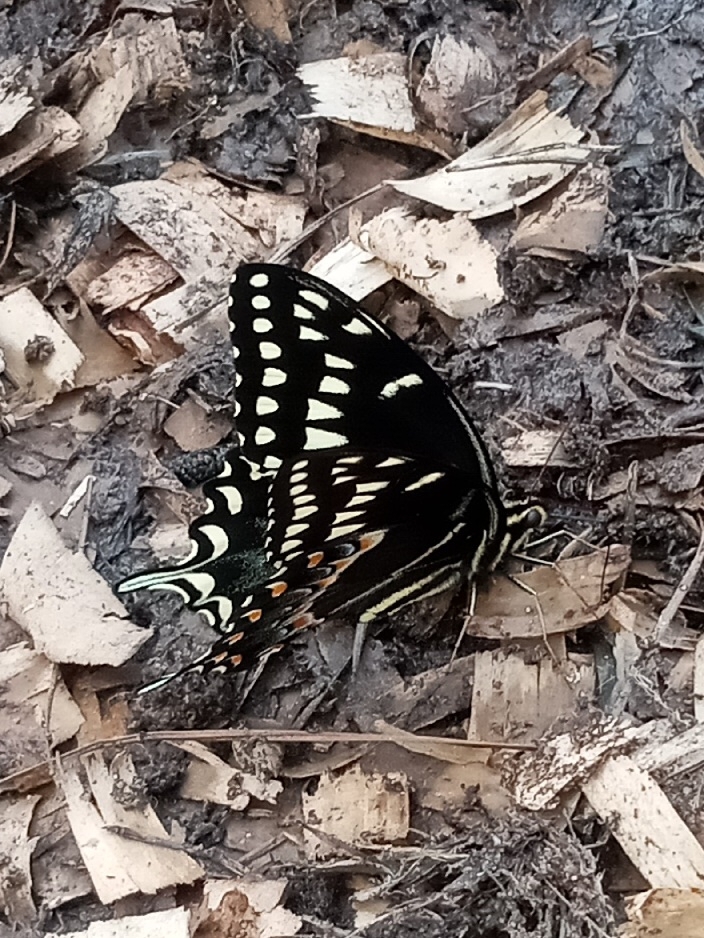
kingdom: Animalia
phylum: Arthropoda
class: Insecta
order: Lepidoptera
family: Papilionidae
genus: Papilio
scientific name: Papilio palamedes
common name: Palamedes swallowtail
